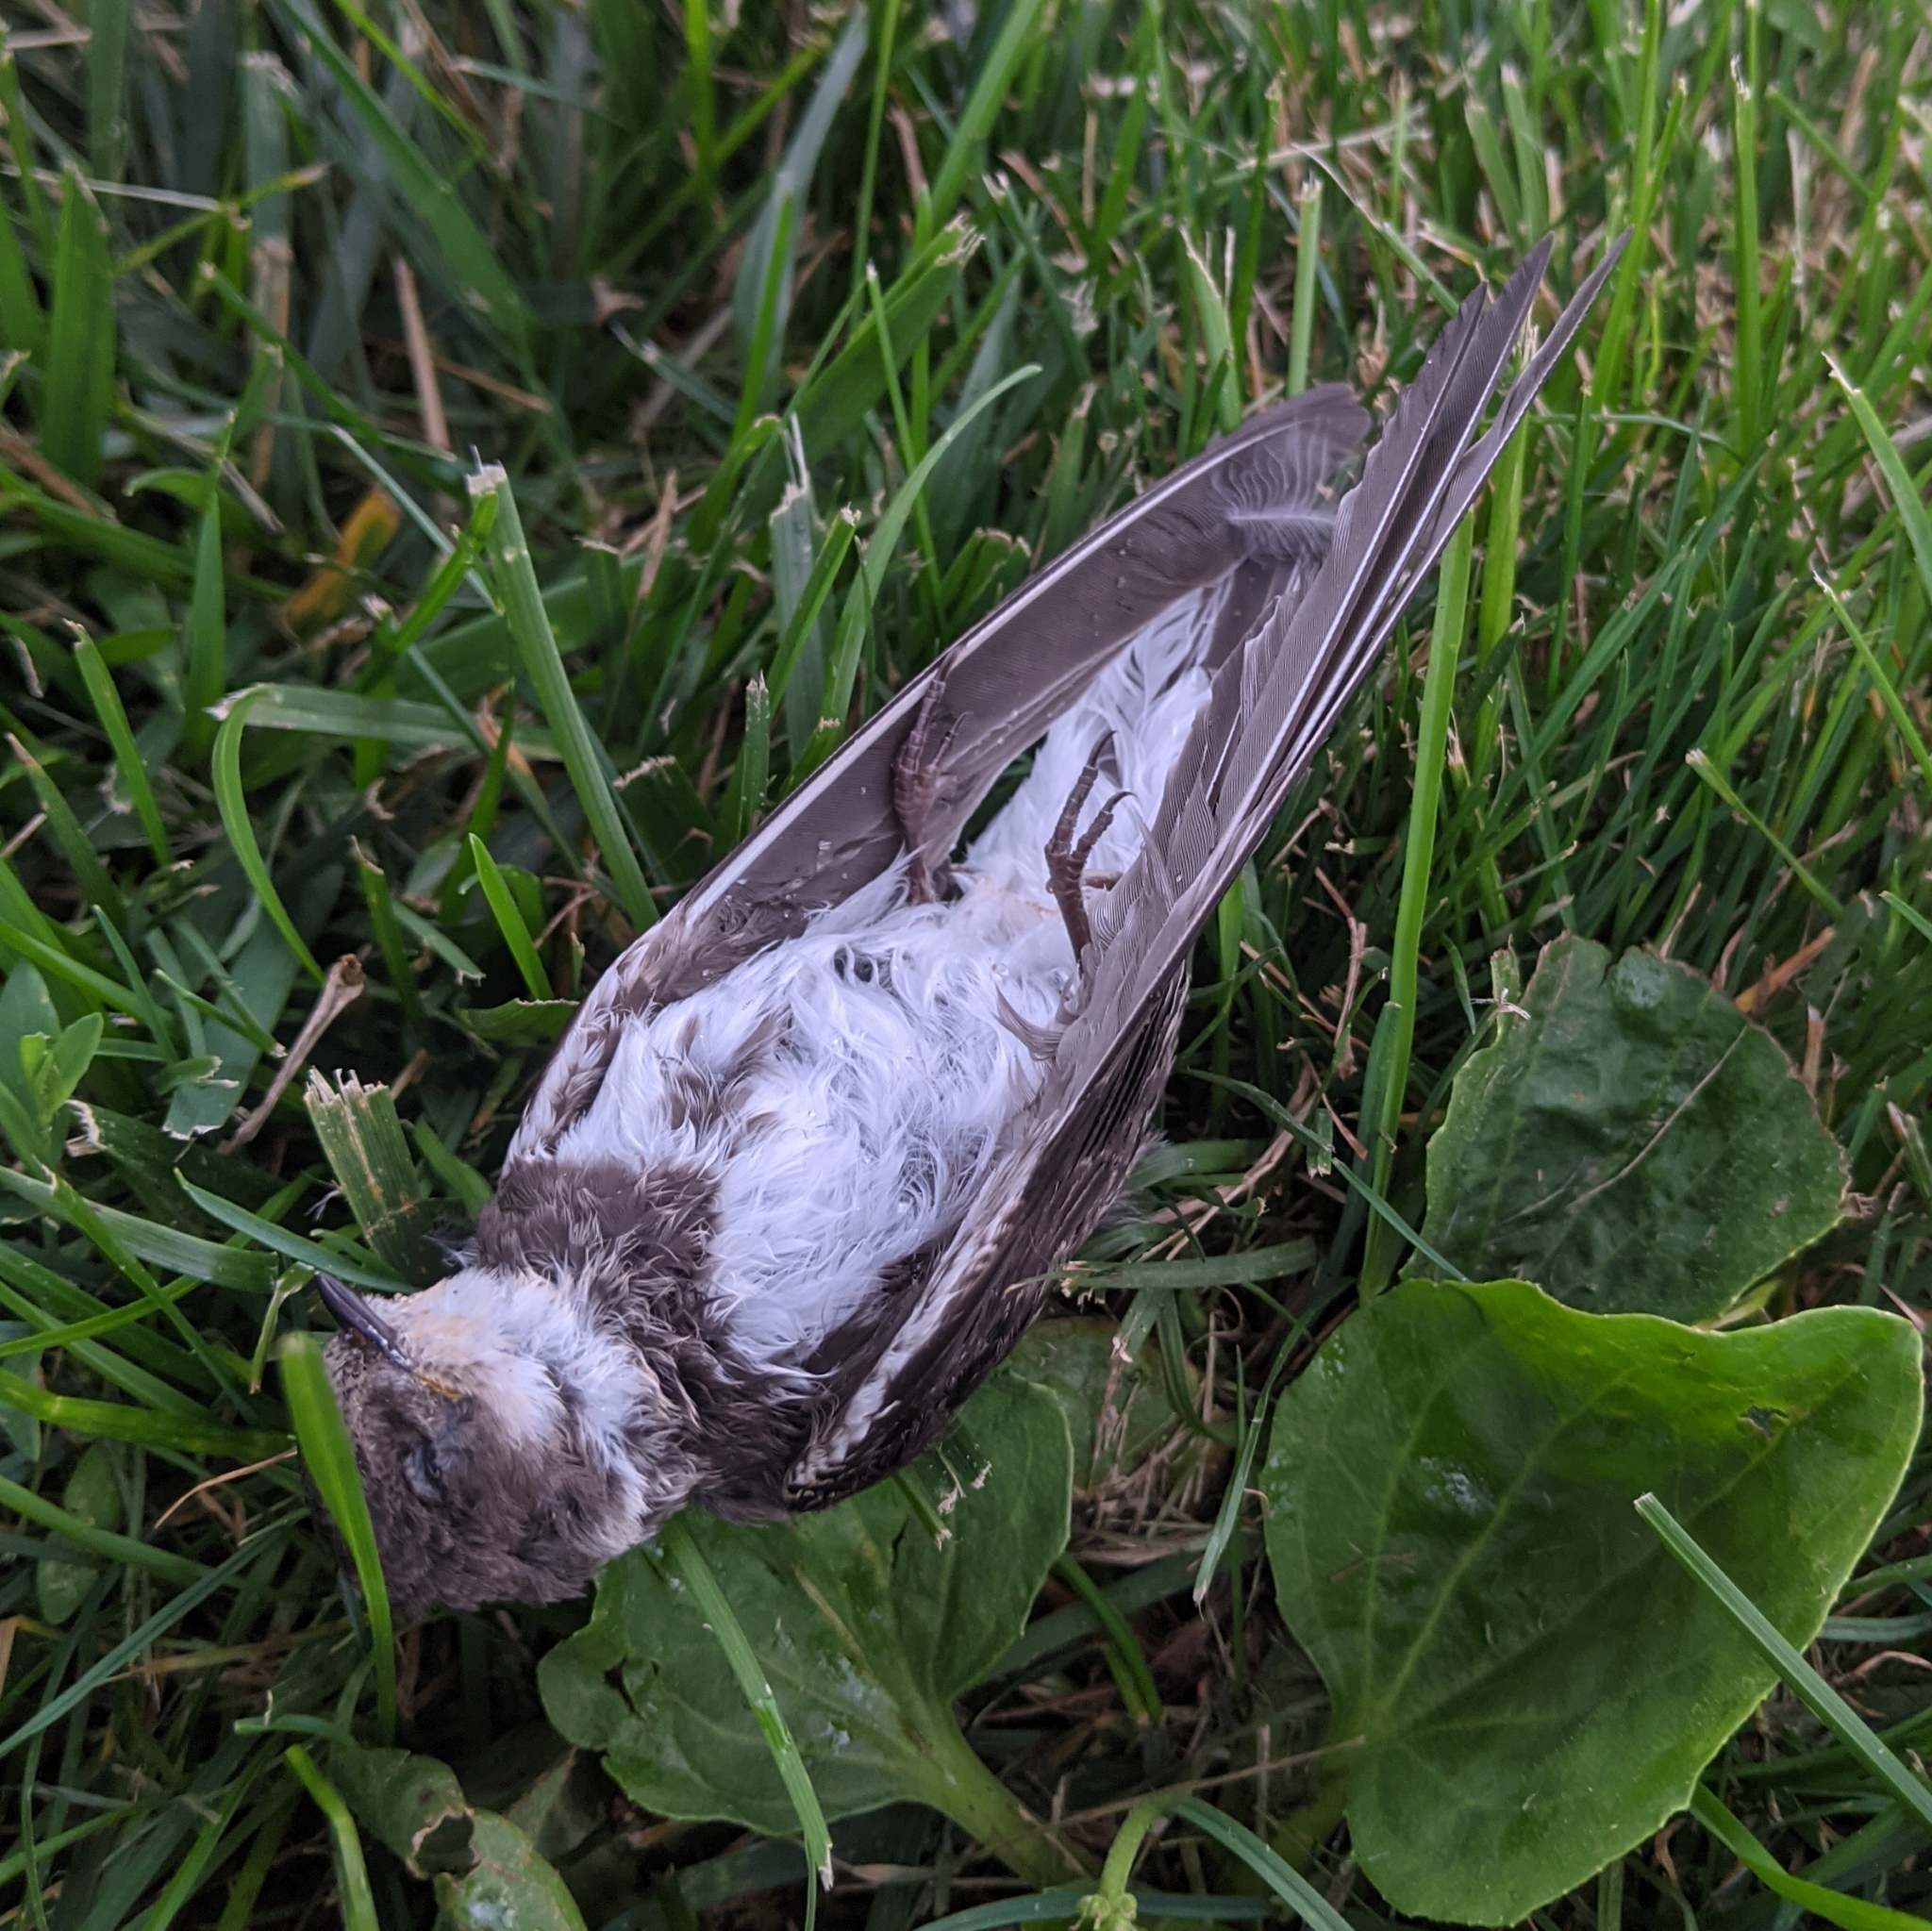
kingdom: Animalia
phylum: Chordata
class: Aves
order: Passeriformes
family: Hirundinidae
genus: Riparia
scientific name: Riparia riparia
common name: Sand martin
